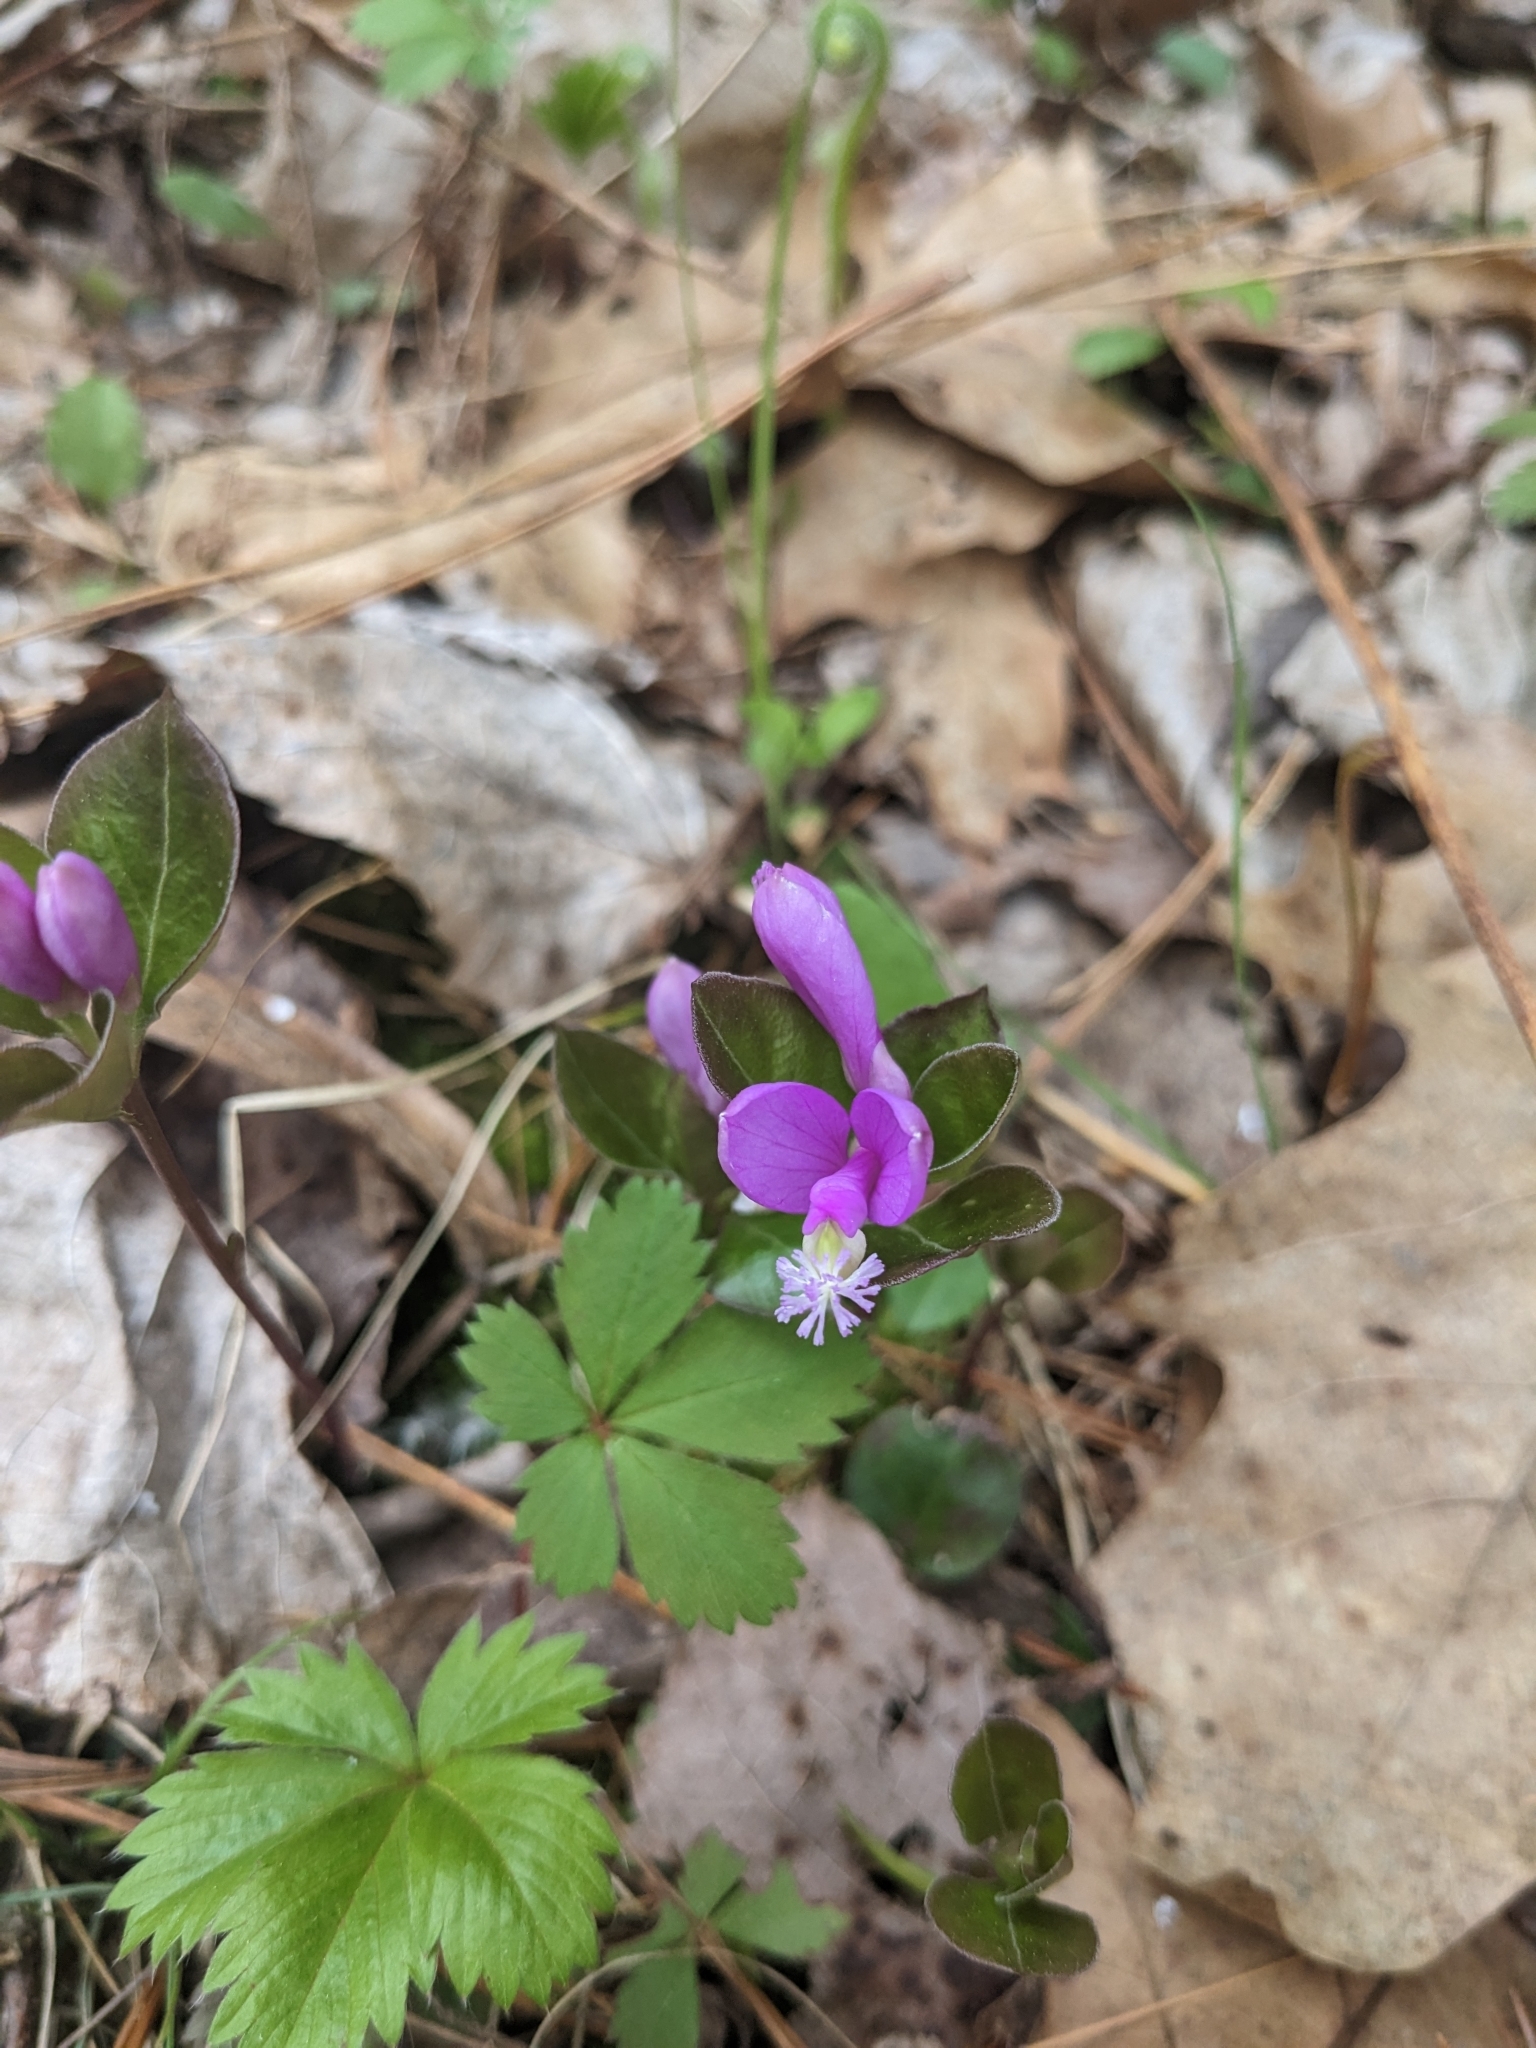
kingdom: Plantae
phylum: Tracheophyta
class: Magnoliopsida
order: Fabales
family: Polygalaceae
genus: Polygaloides
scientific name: Polygaloides paucifolia
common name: Bird-on-the-wing
